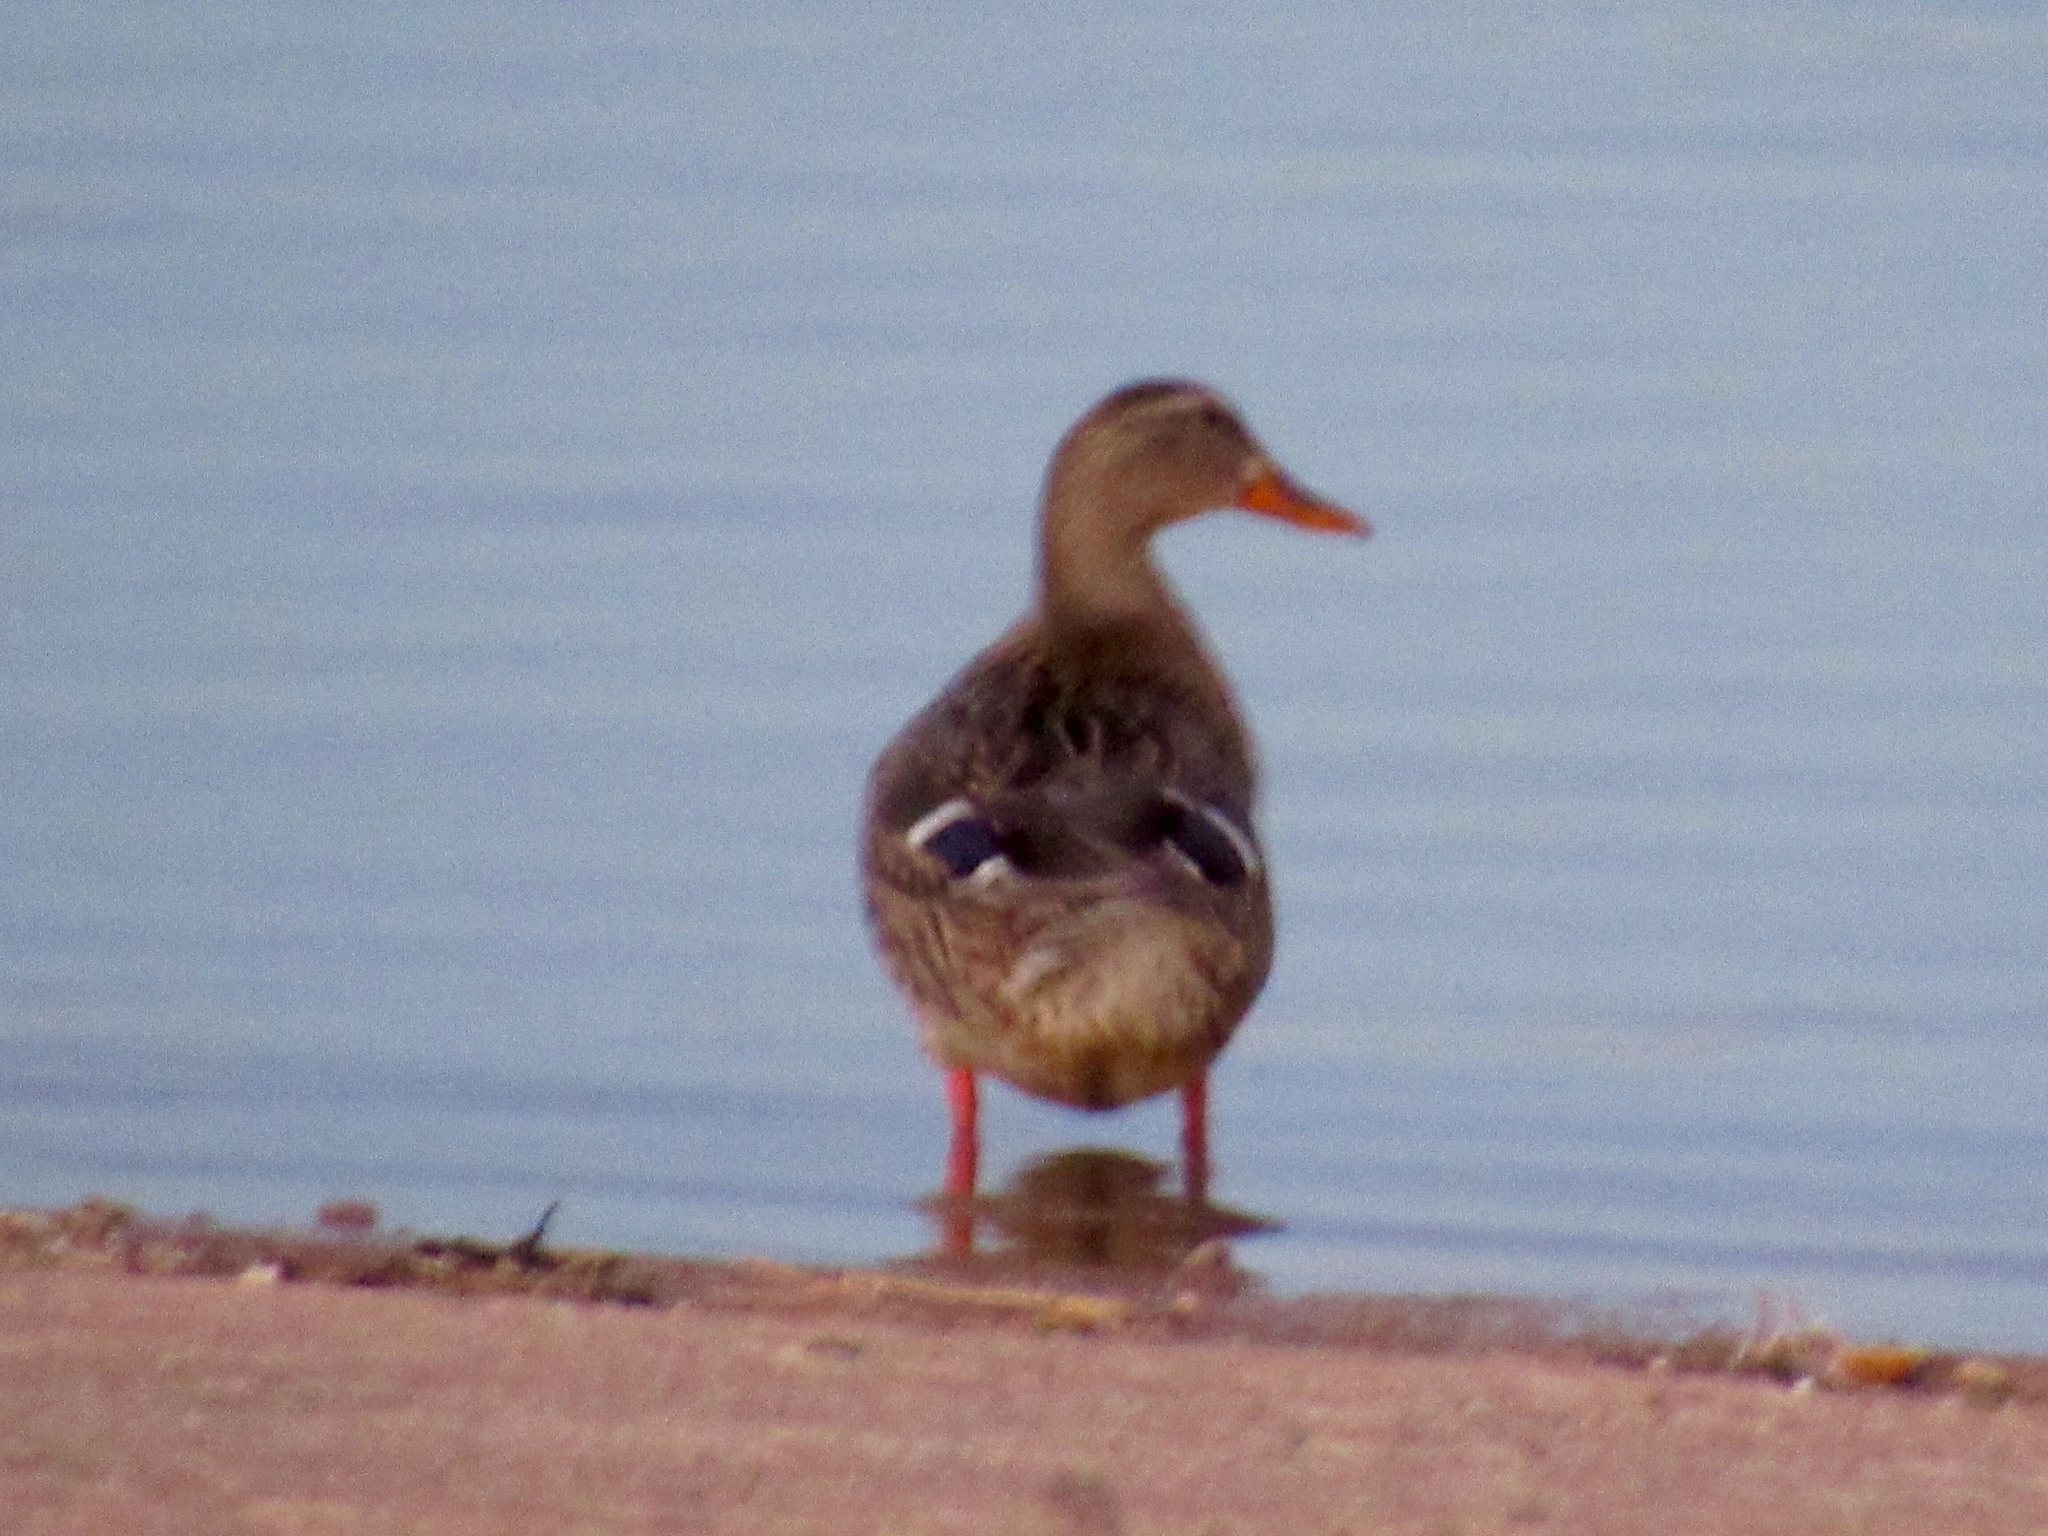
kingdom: Animalia
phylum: Chordata
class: Aves
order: Anseriformes
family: Anatidae
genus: Anas
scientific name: Anas platyrhynchos
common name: Mallard
